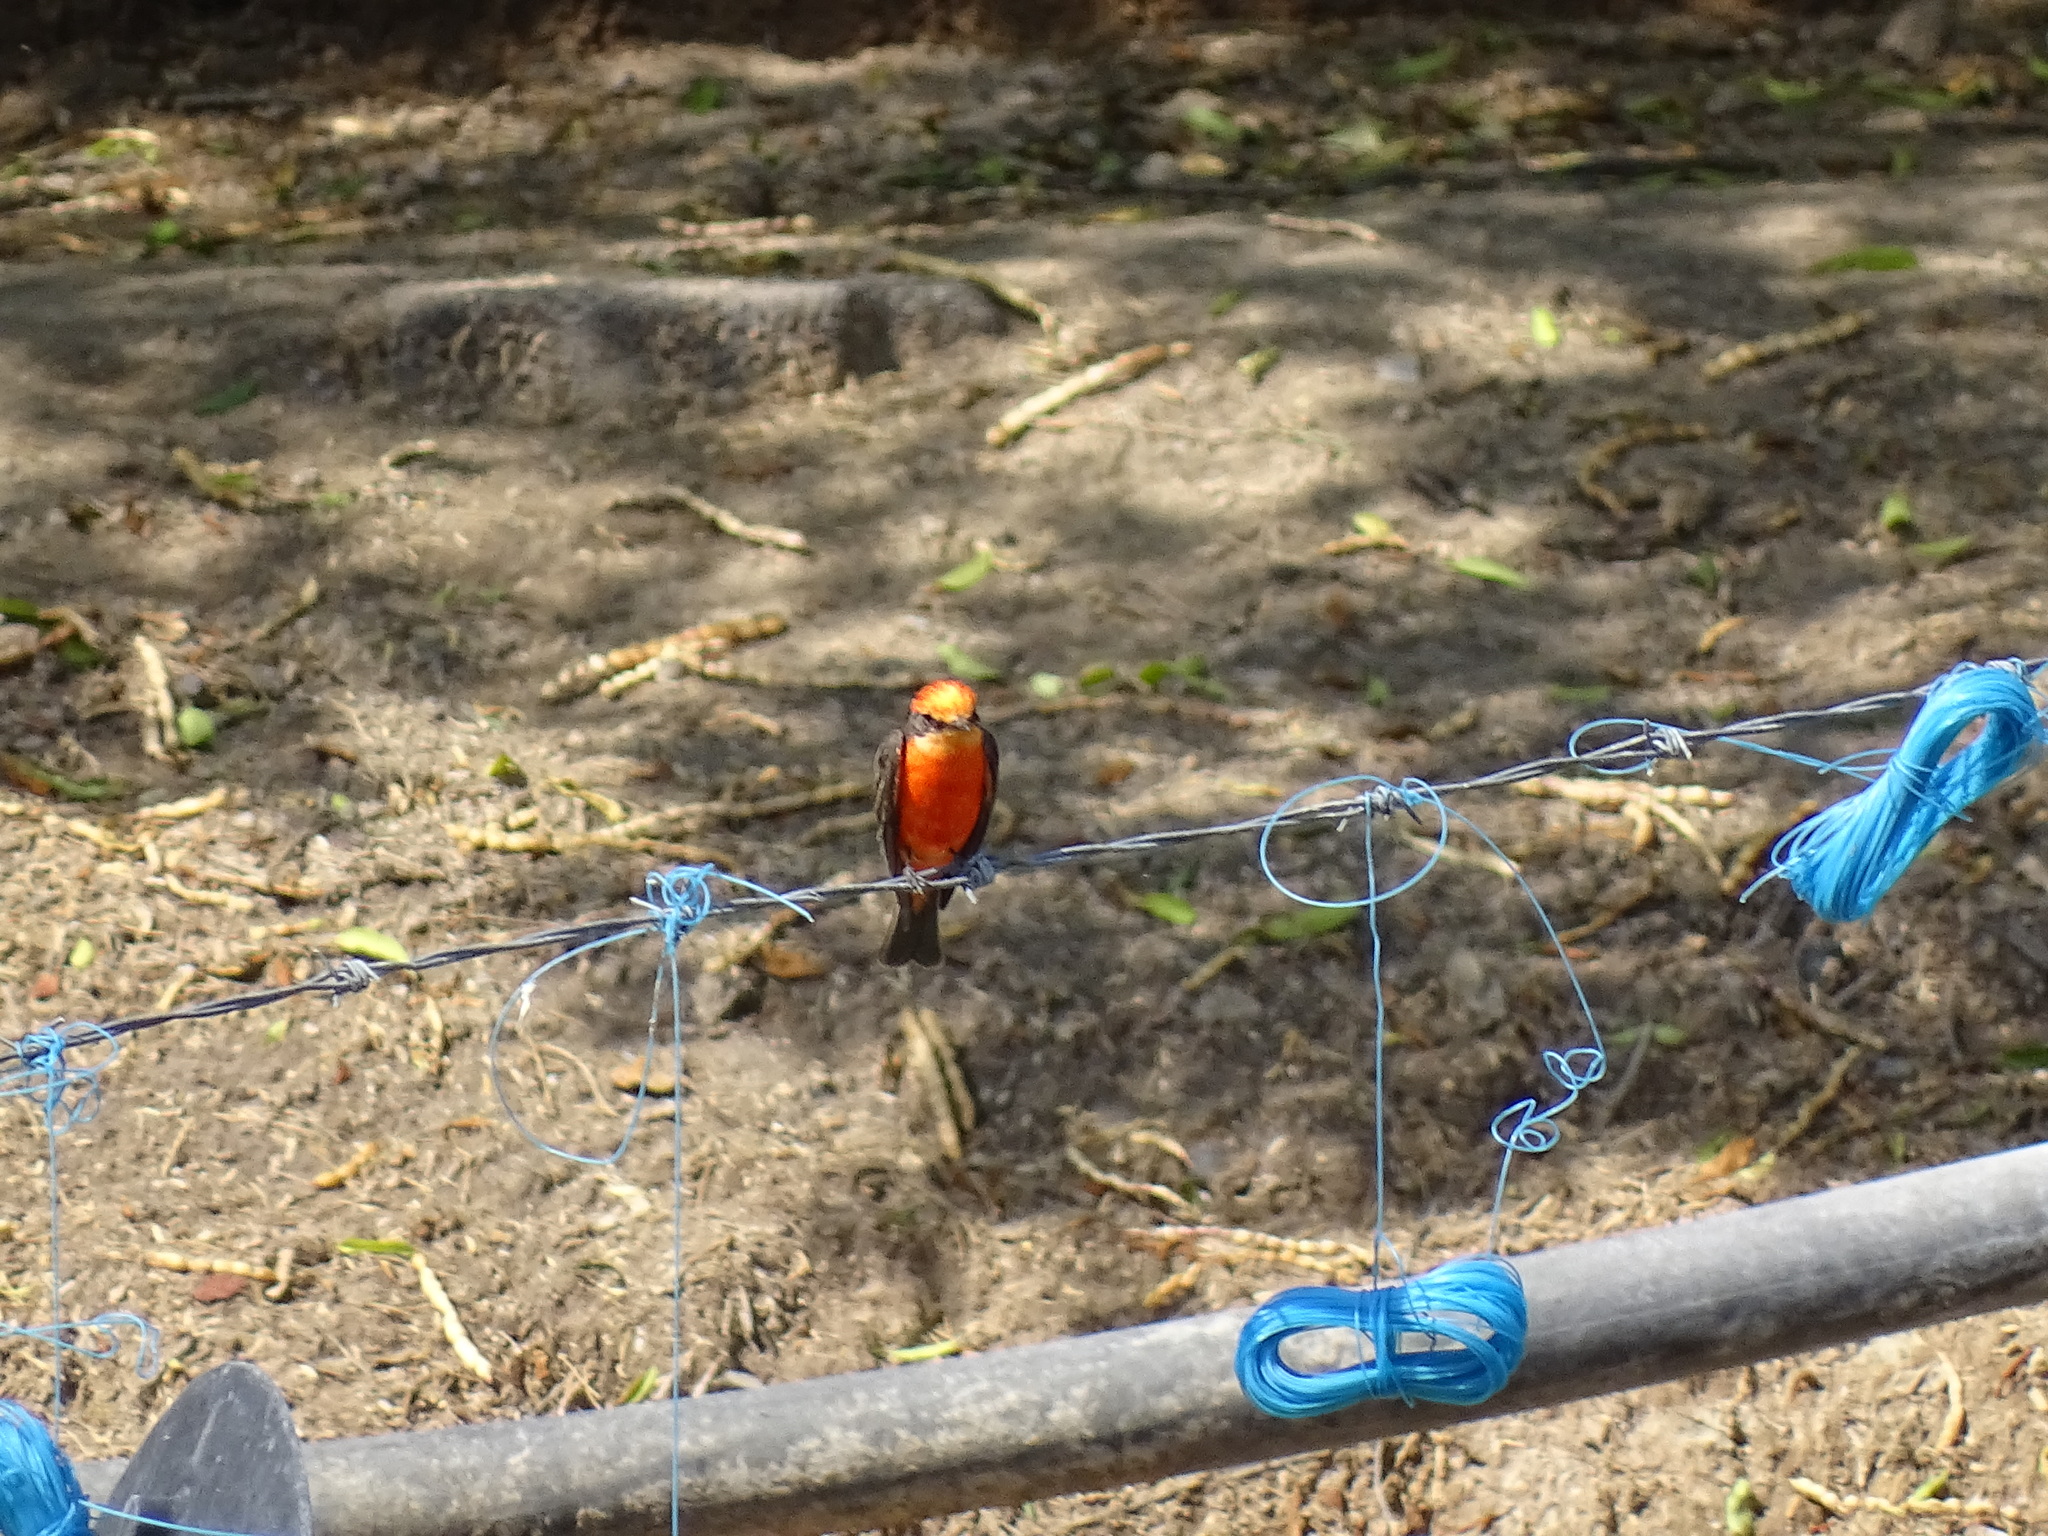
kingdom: Animalia
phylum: Chordata
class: Aves
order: Passeriformes
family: Tyrannidae
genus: Pyrocephalus
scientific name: Pyrocephalus rubinus
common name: Vermilion flycatcher
